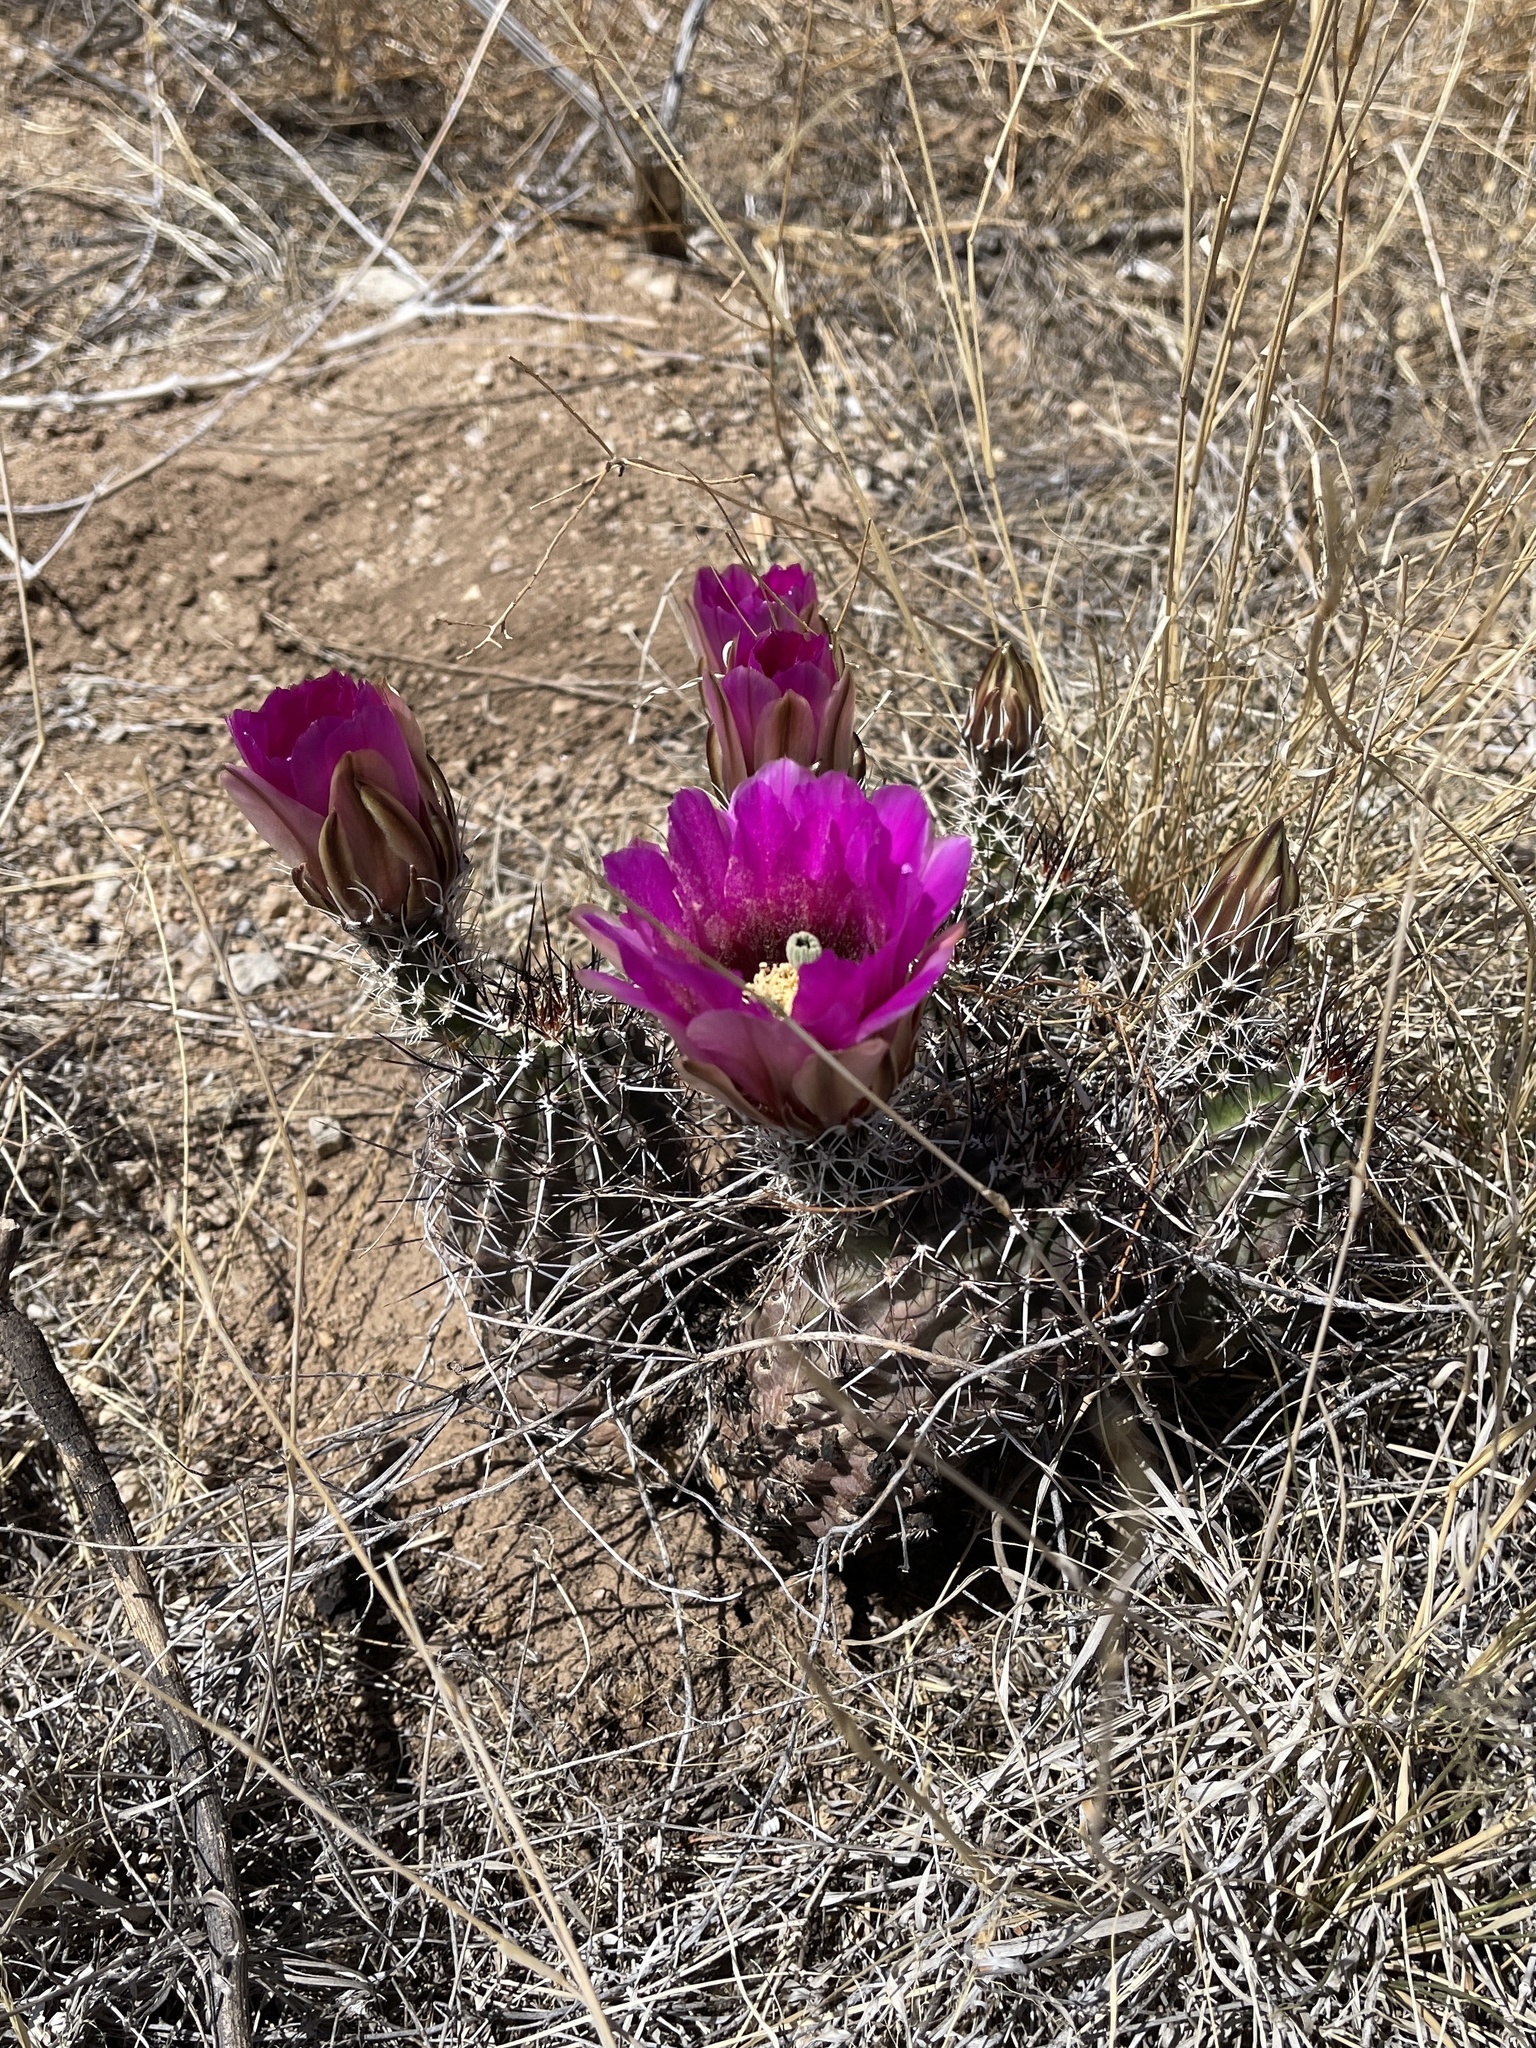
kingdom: Plantae
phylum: Tracheophyta
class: Magnoliopsida
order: Caryophyllales
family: Cactaceae
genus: Echinocereus
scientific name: Echinocereus fendleri
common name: Fendler's hedgehog cactus
